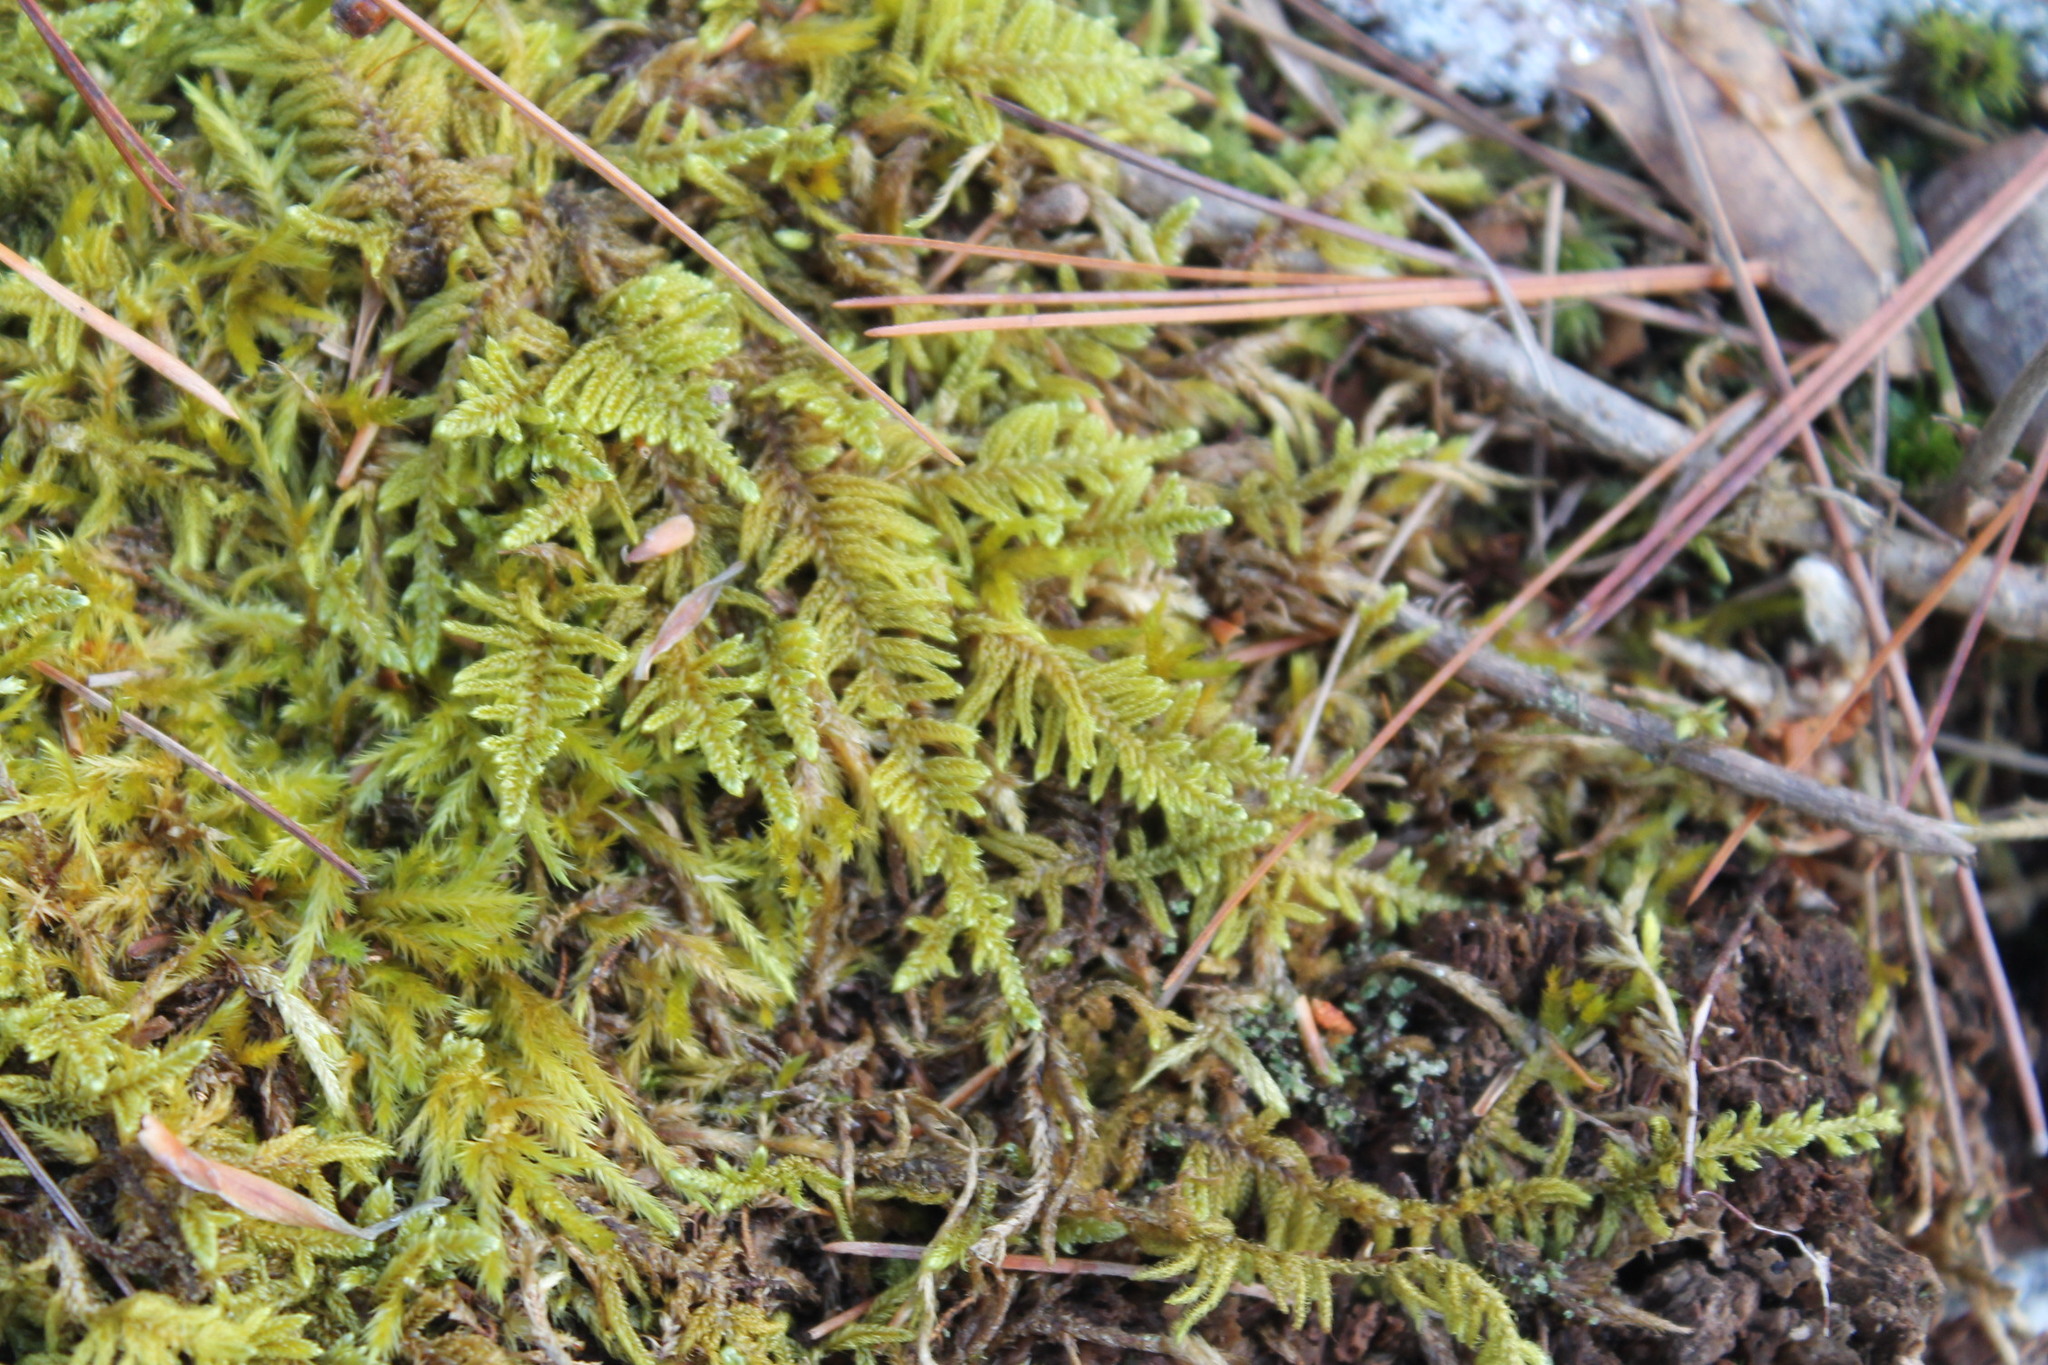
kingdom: Plantae
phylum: Bryophyta
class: Bryopsida
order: Hypnales
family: Callicladiaceae
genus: Callicladium
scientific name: Callicladium imponens
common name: Brocade moss
